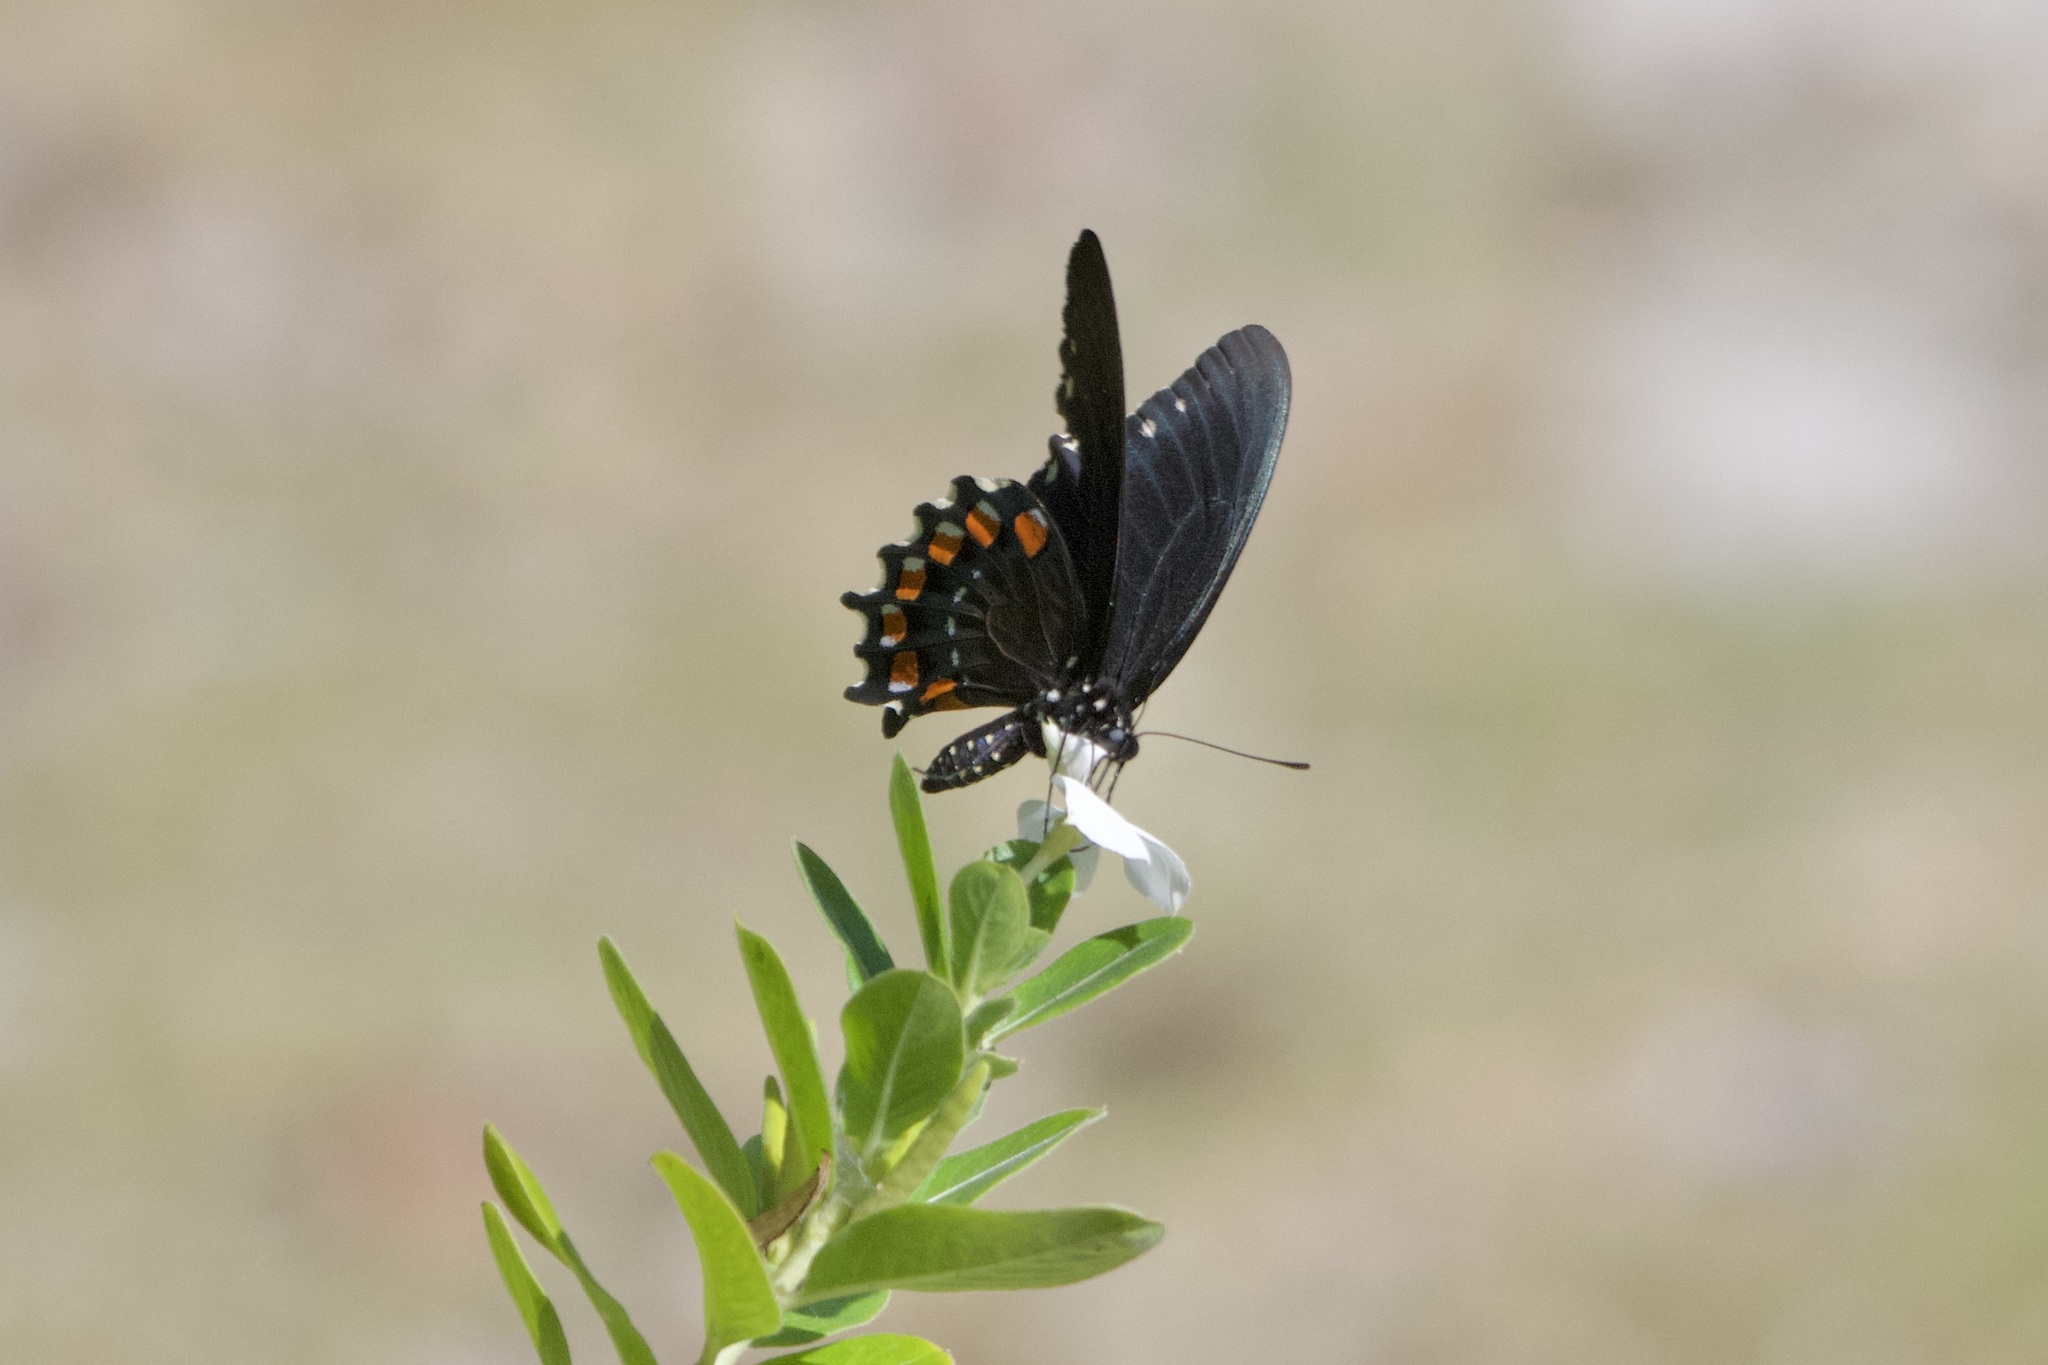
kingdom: Animalia
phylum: Arthropoda
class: Insecta
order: Lepidoptera
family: Papilionidae
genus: Battus
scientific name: Battus philenor
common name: Pipevine swallowtail
